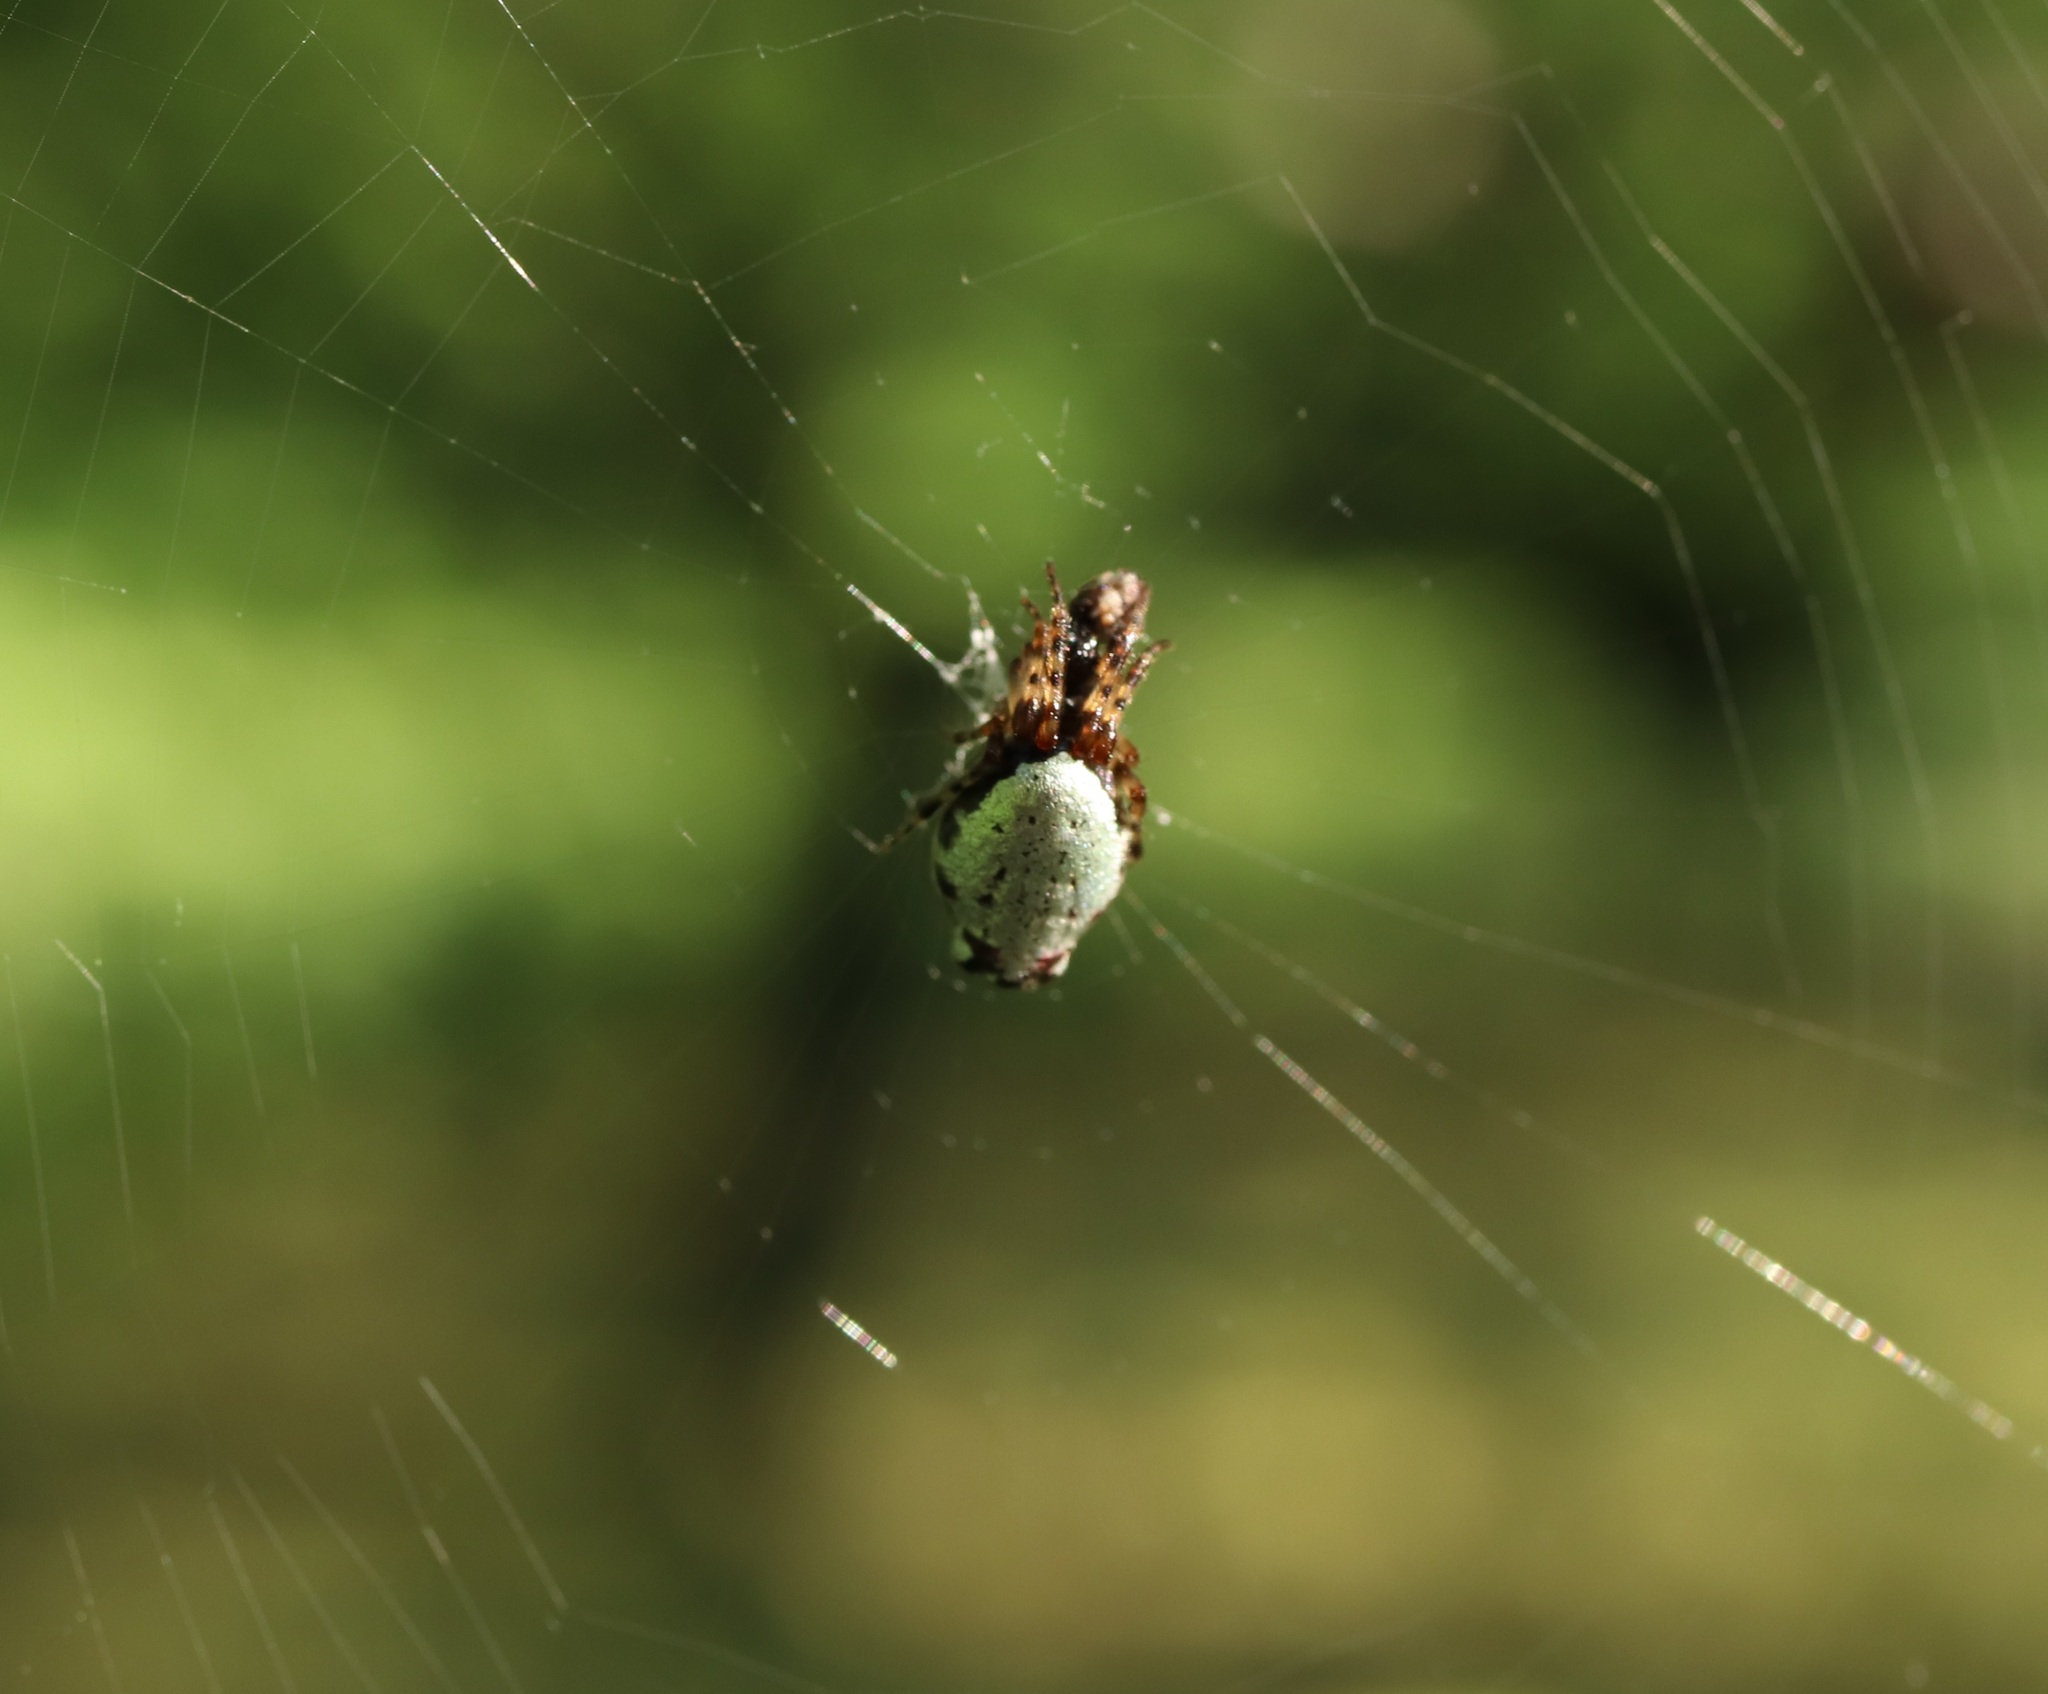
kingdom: Animalia
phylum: Arthropoda
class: Arachnida
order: Araneae
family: Araneidae
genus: Cyclosa
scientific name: Cyclosa argenteoalba
